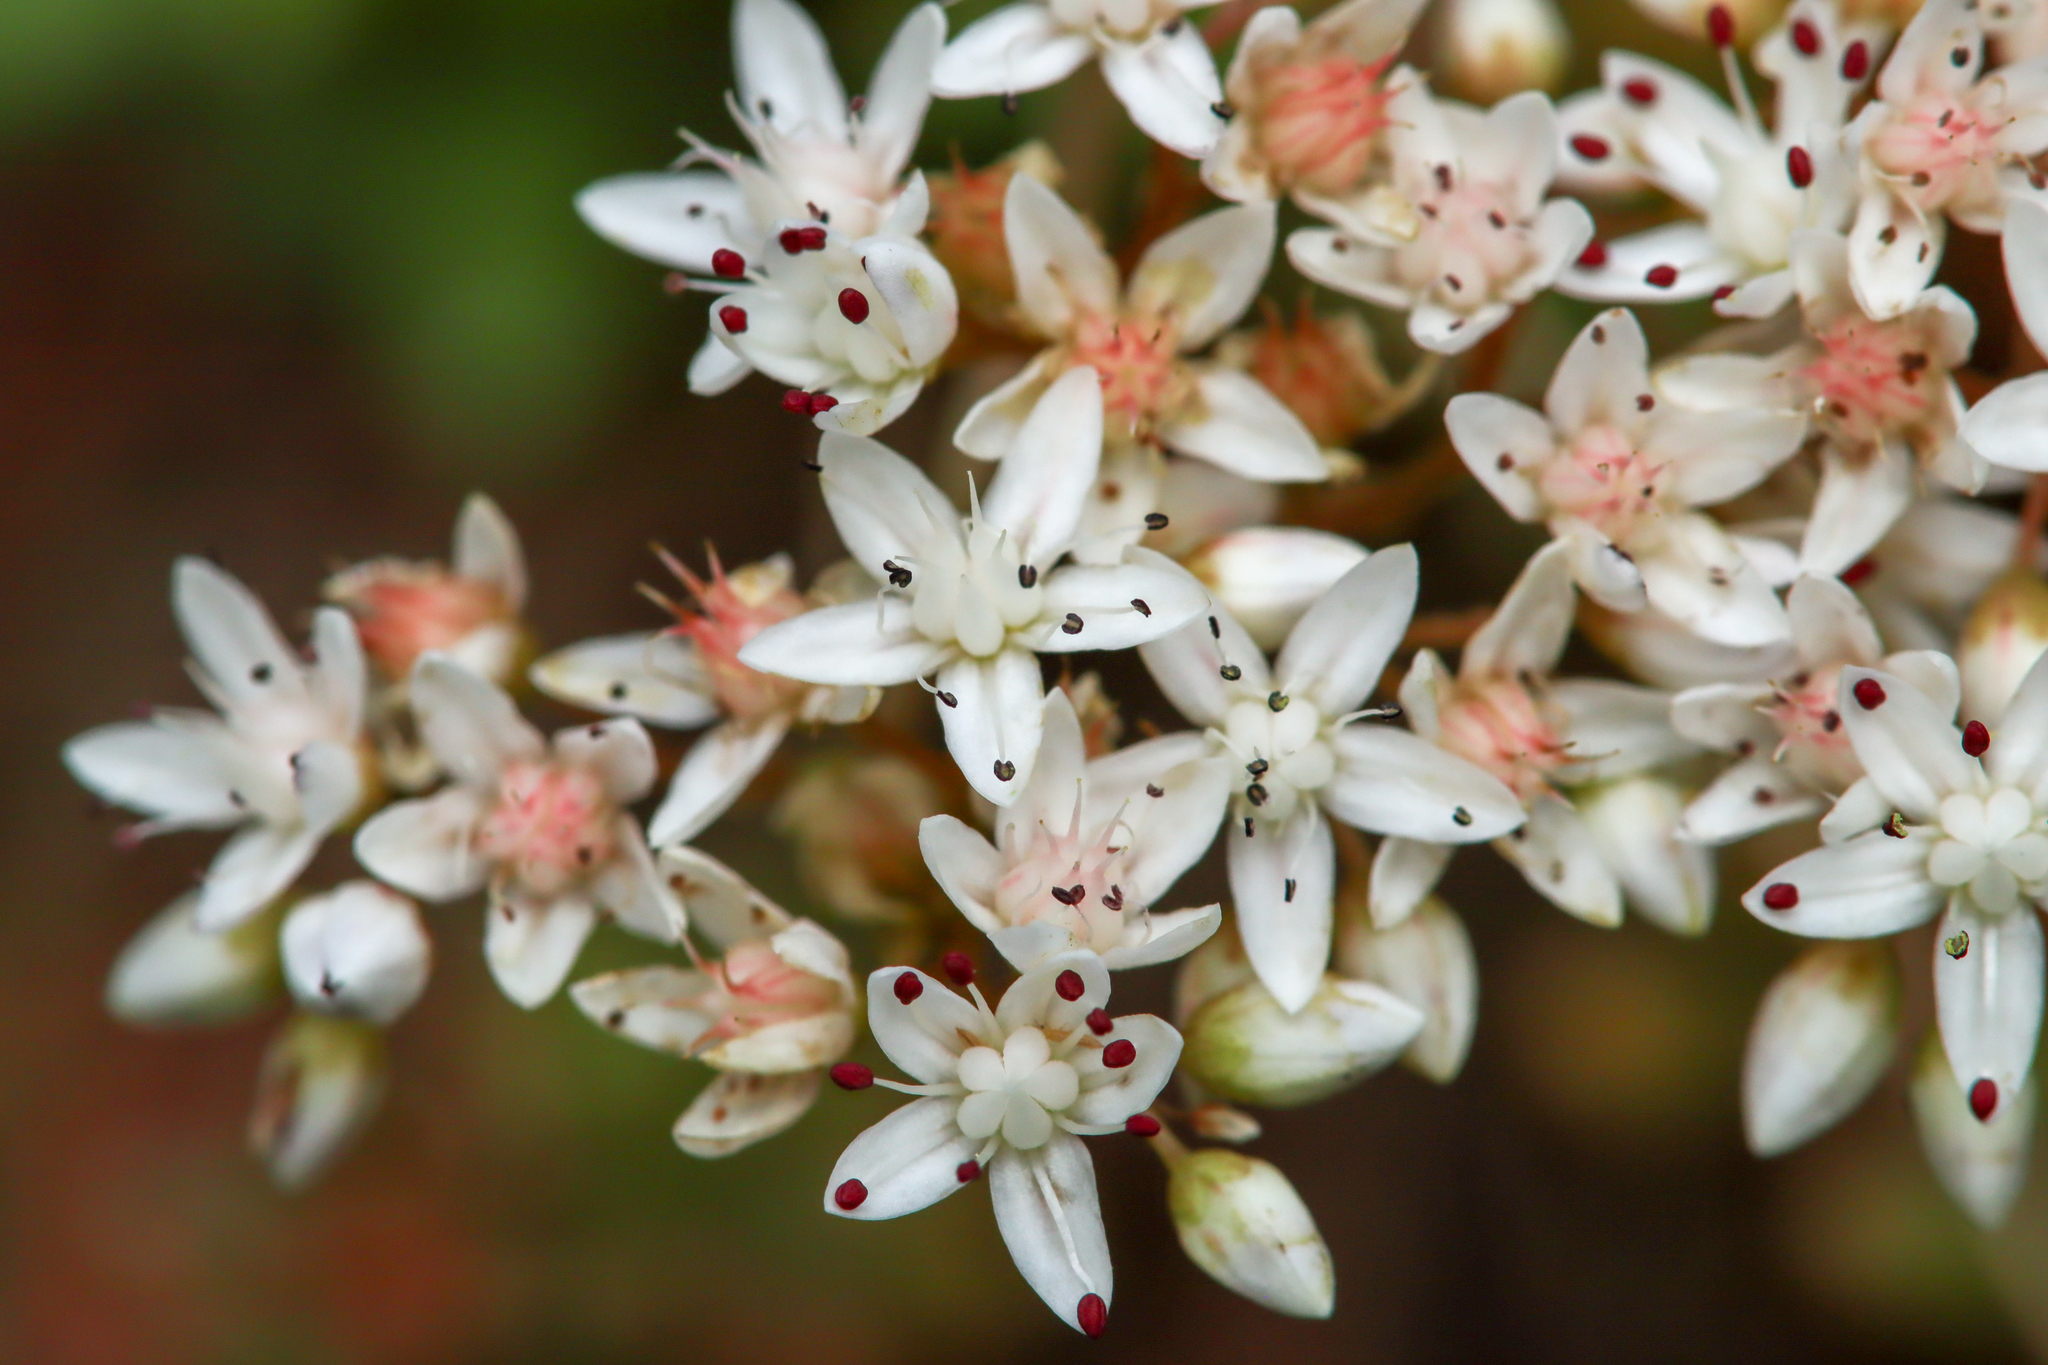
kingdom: Plantae
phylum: Tracheophyta
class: Magnoliopsida
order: Saxifragales
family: Crassulaceae
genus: Sedum
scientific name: Sedum album
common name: White stonecrop
